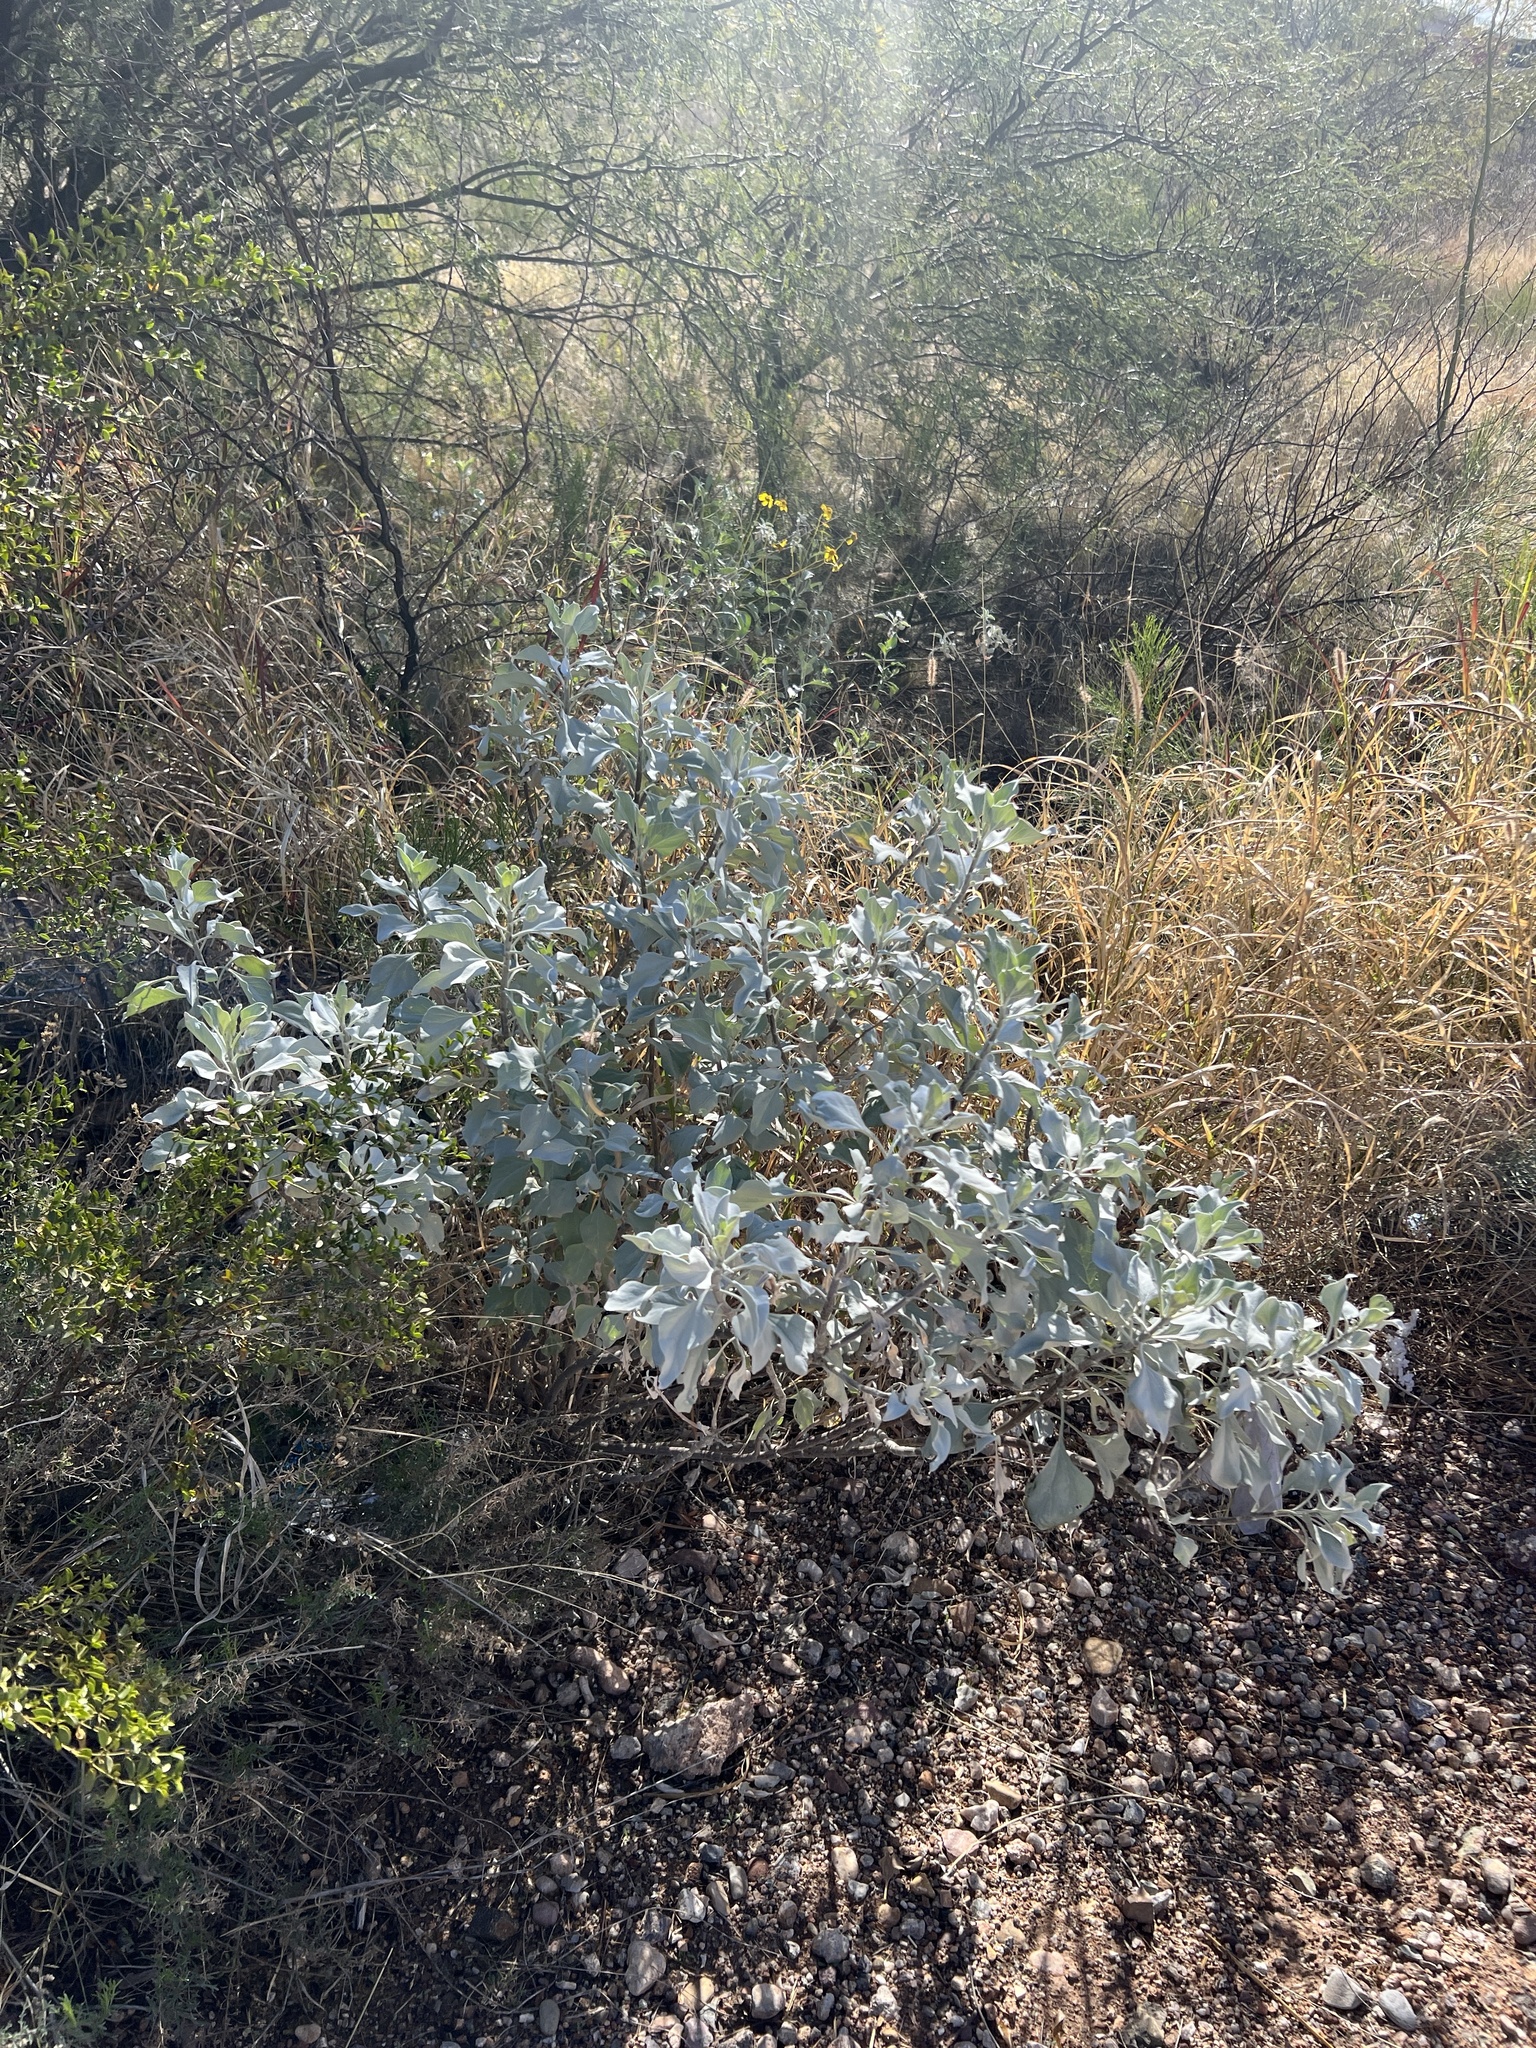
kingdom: Plantae
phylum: Tracheophyta
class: Magnoliopsida
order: Asterales
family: Asteraceae
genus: Encelia
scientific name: Encelia farinosa
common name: Brittlebush
